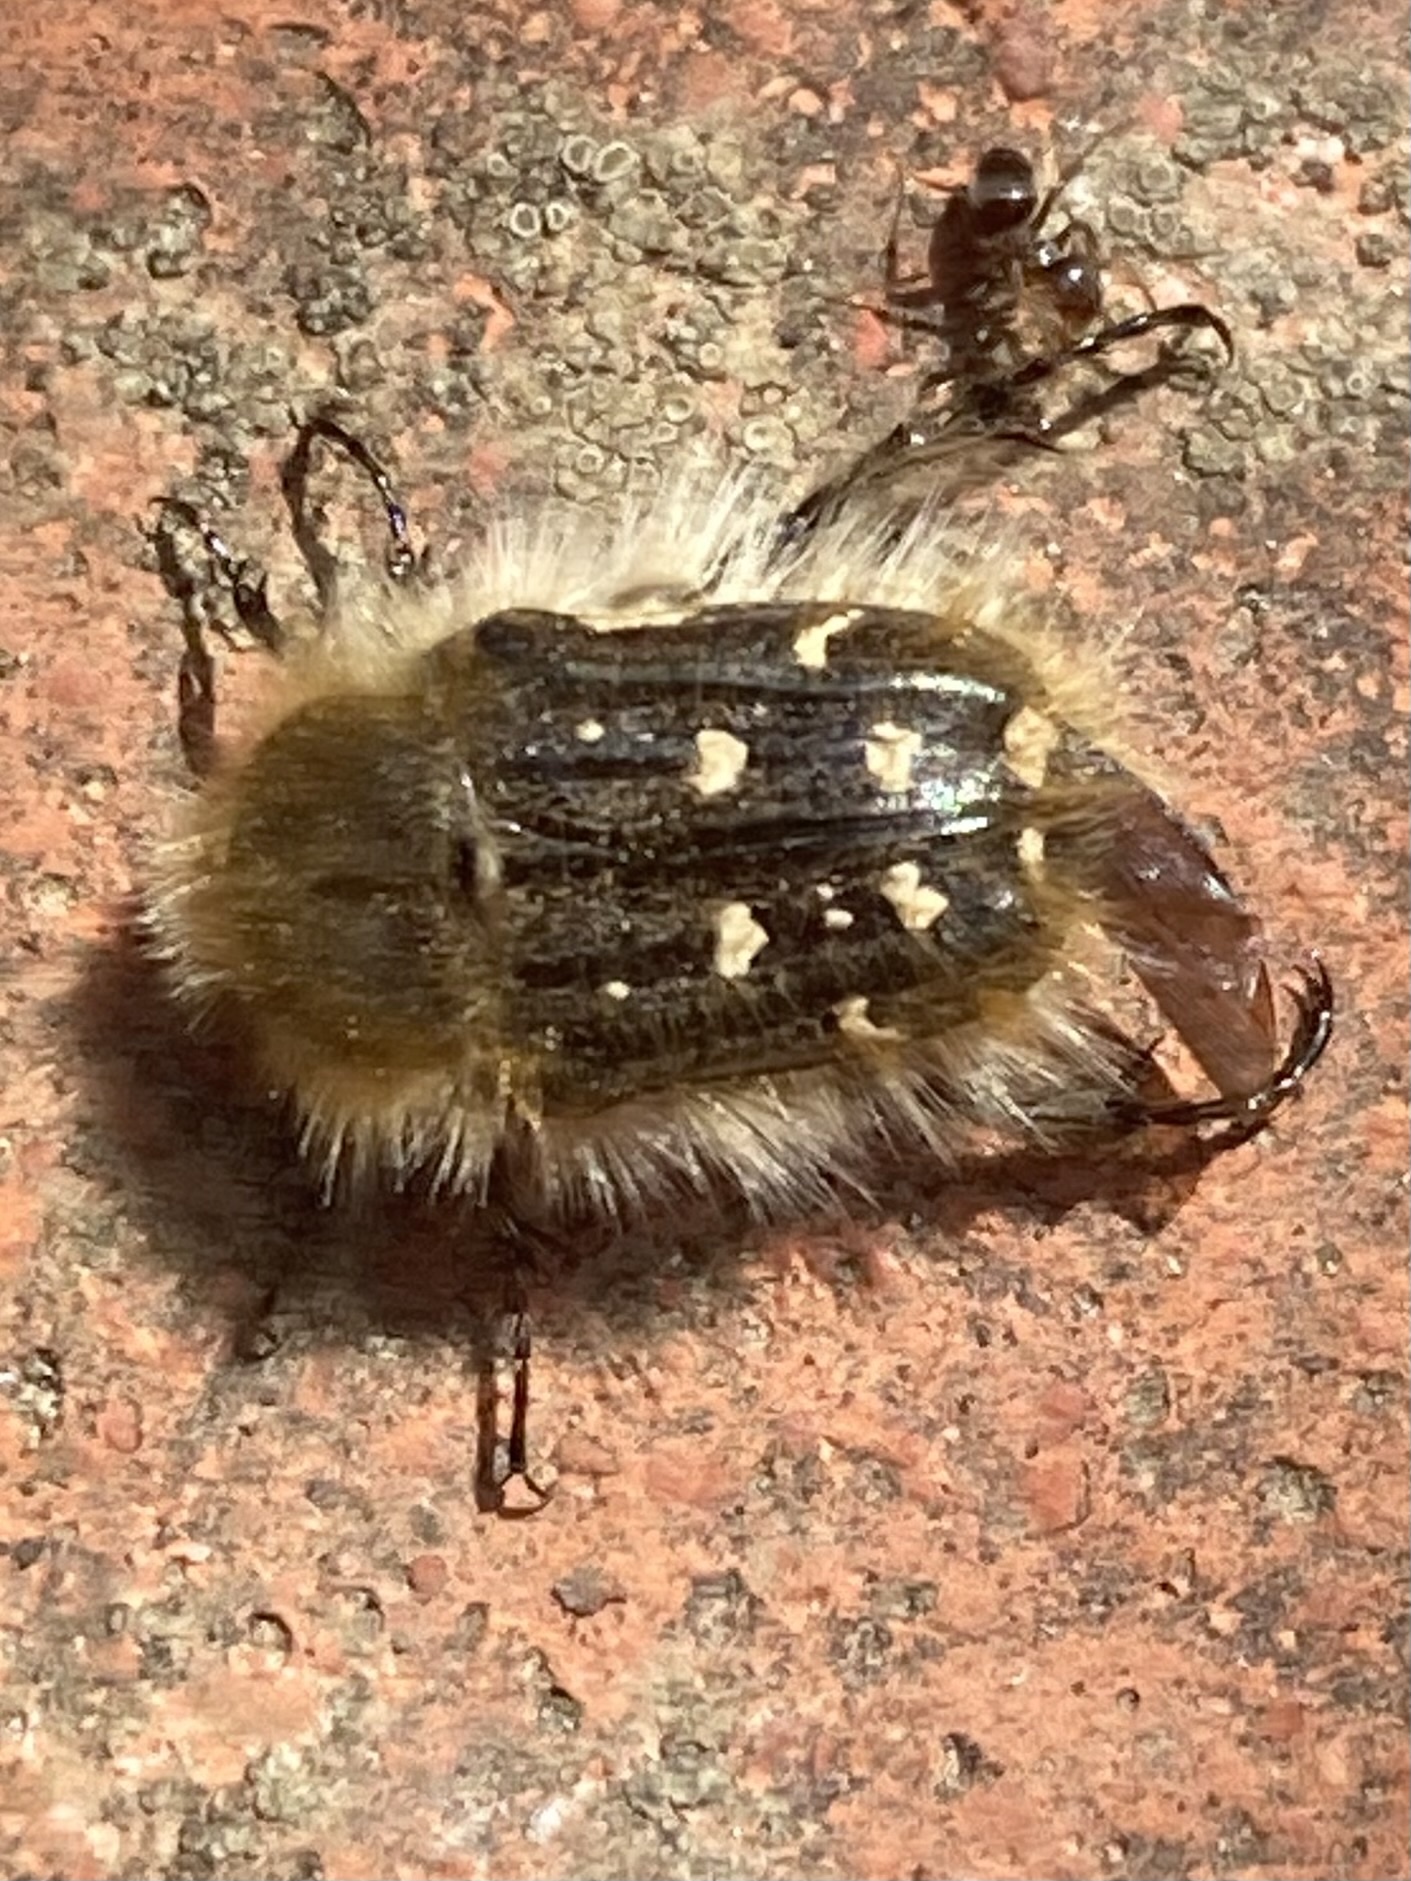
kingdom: Animalia
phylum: Arthropoda
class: Insecta
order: Coleoptera
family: Scarabaeidae
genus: Tropinota
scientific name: Tropinota squalida
